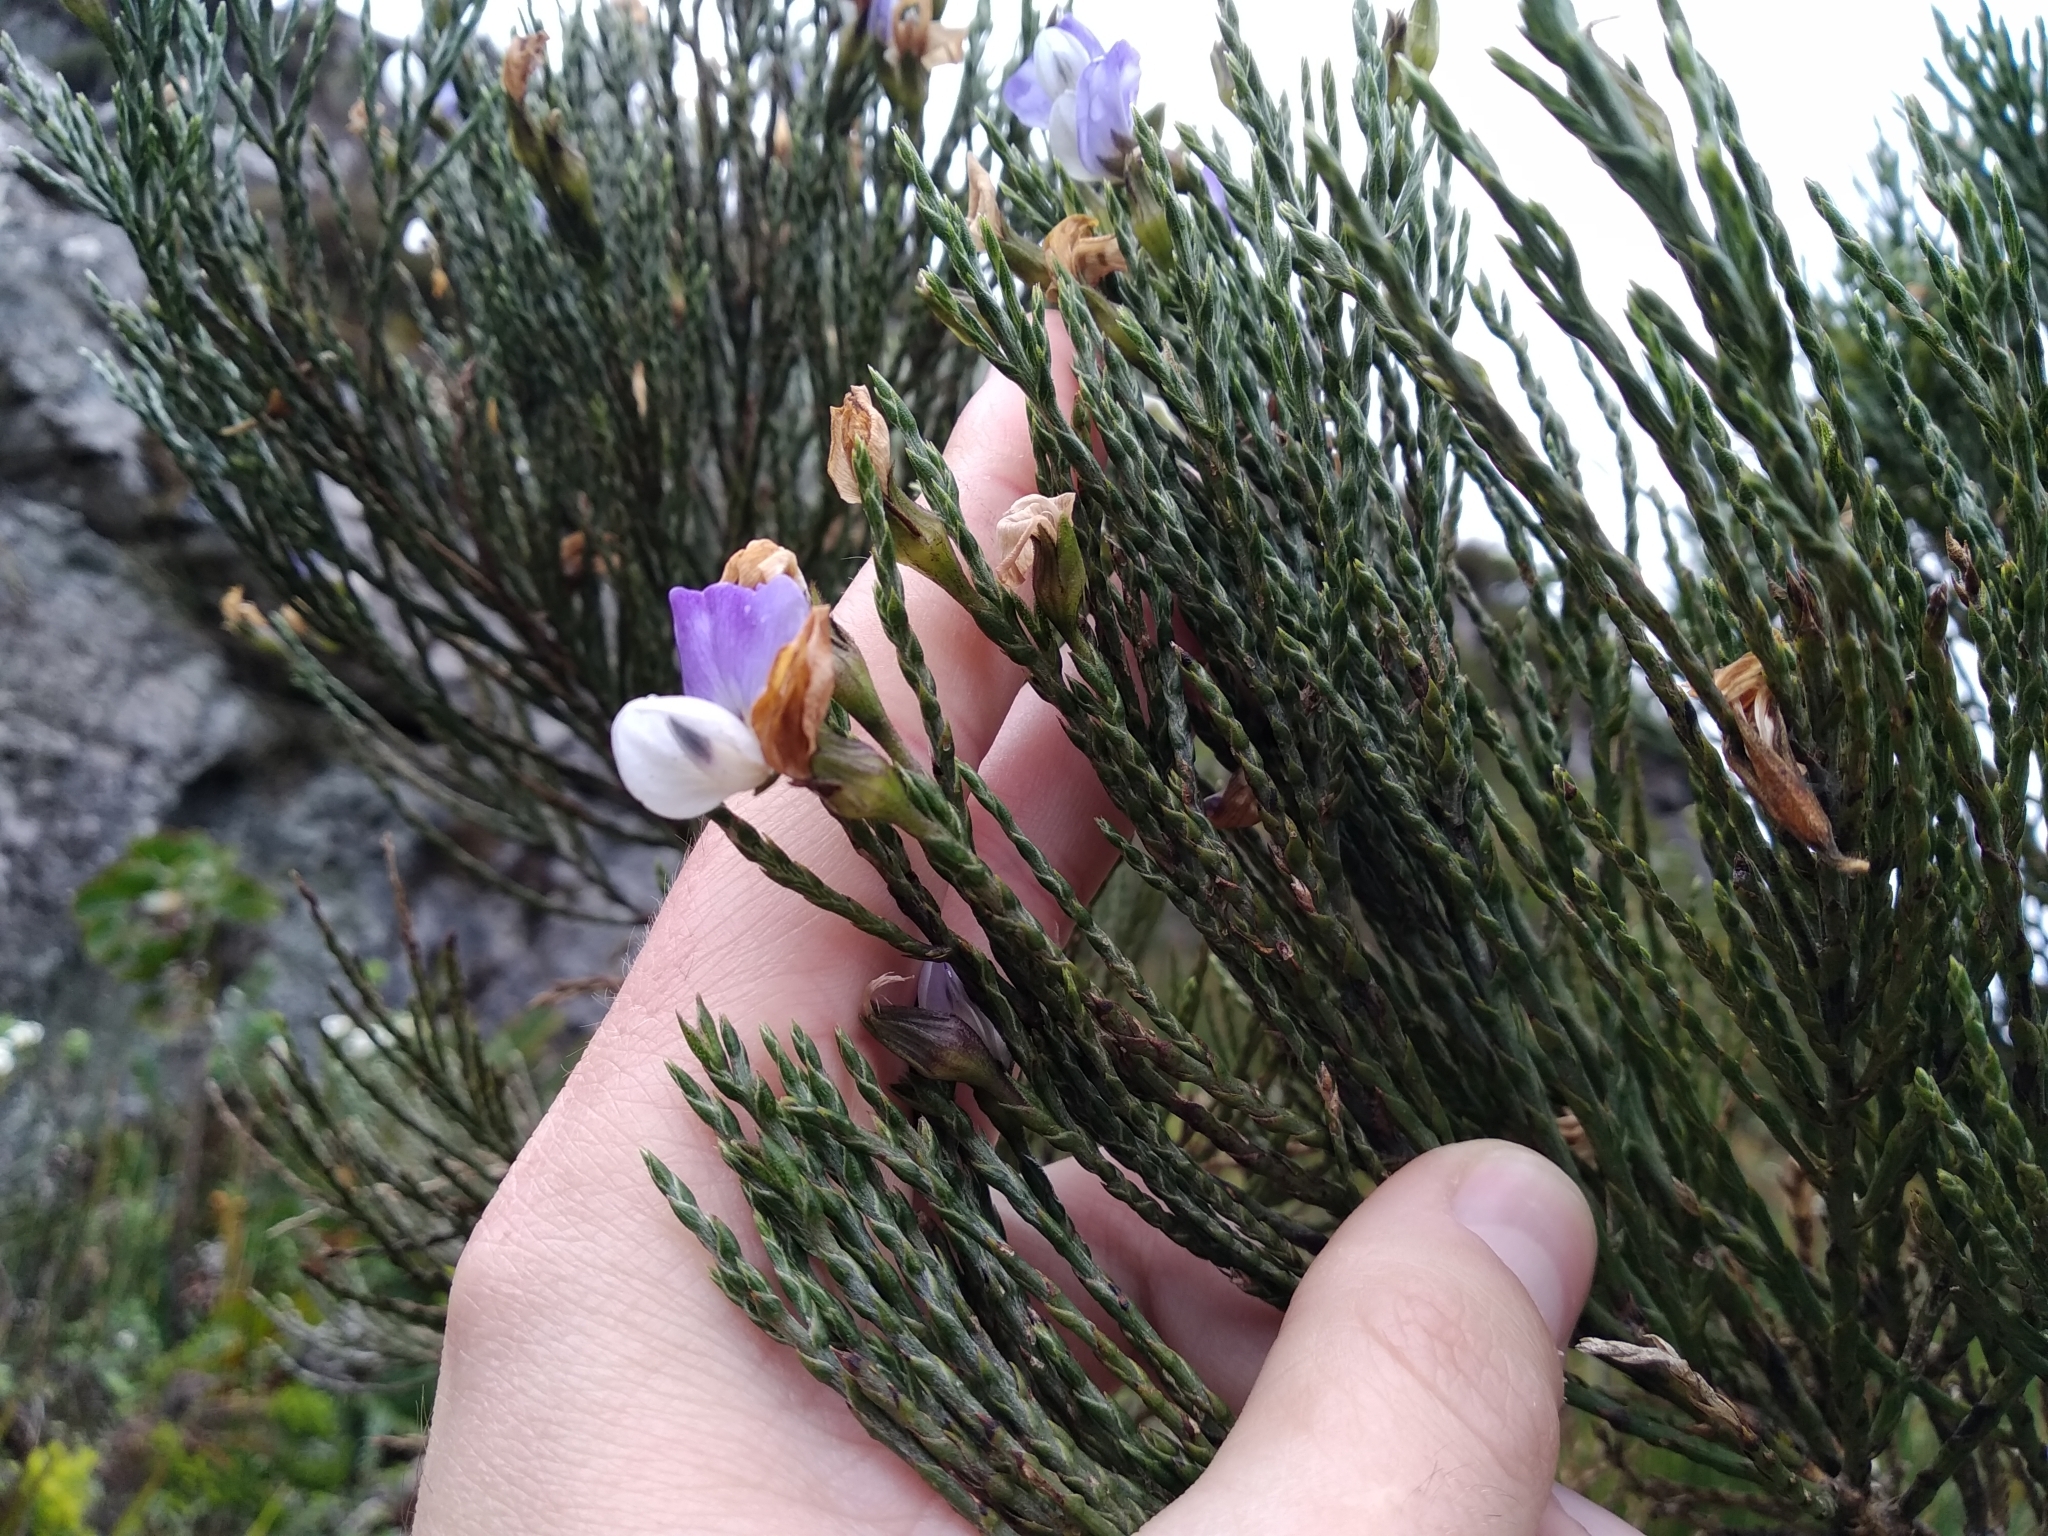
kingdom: Plantae
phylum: Tracheophyta
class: Magnoliopsida
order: Fabales
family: Fabaceae
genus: Psoralea
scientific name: Psoralea congesta
